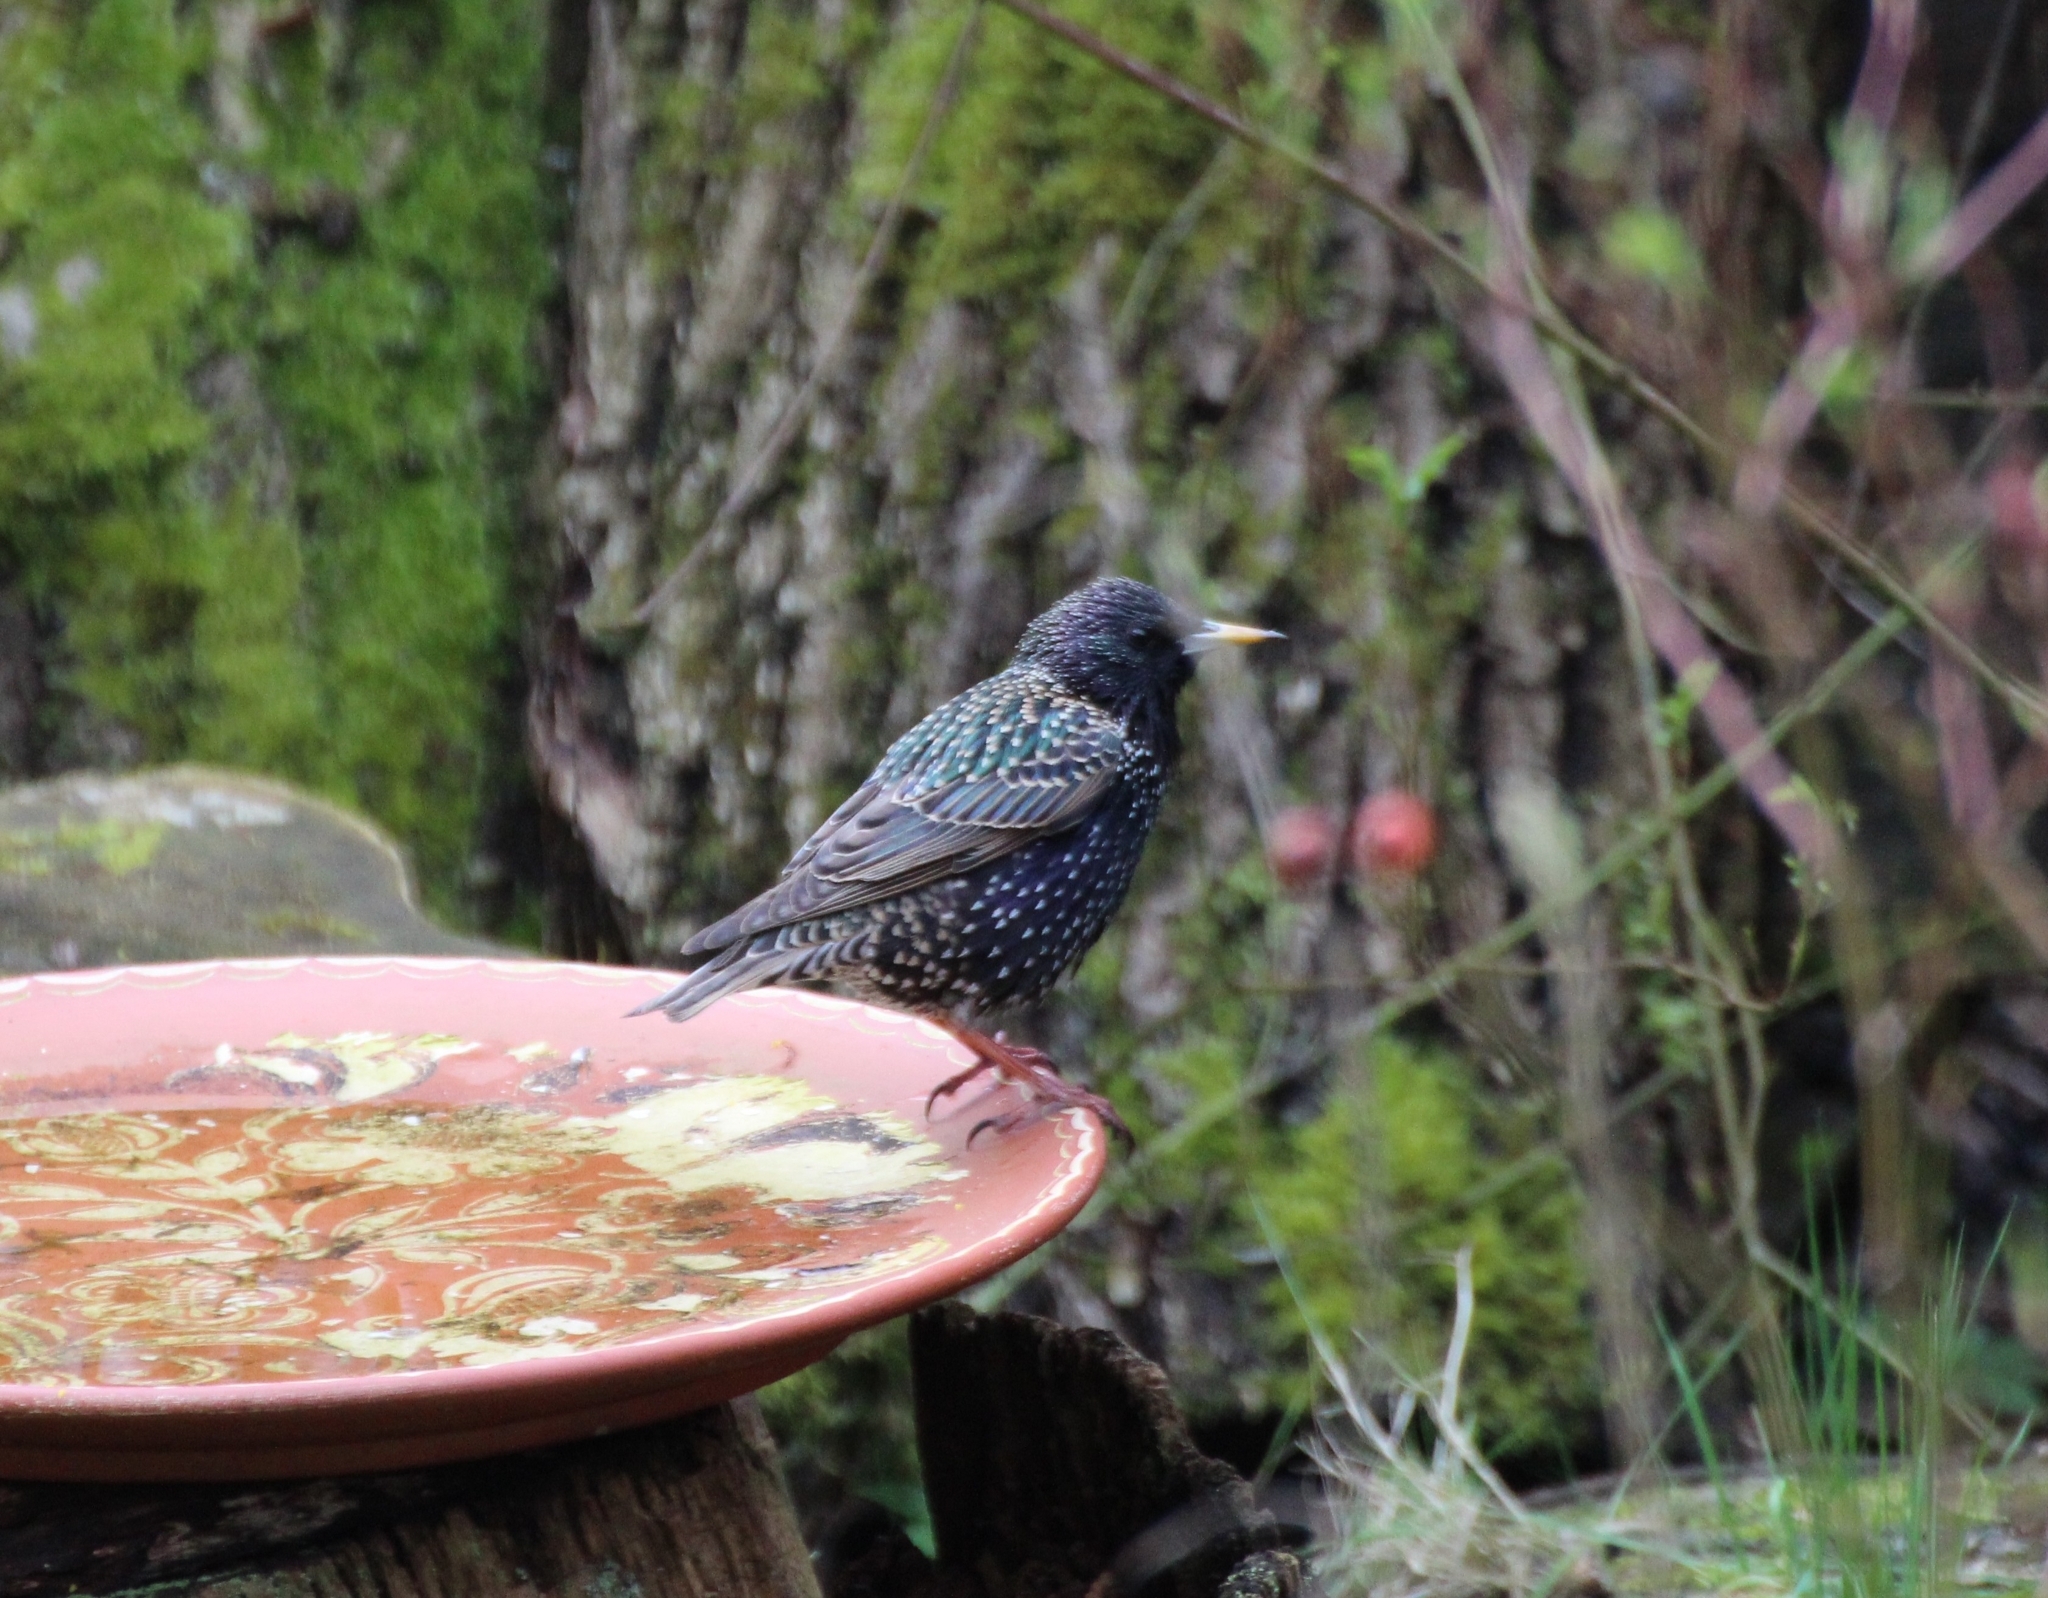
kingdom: Animalia
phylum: Chordata
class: Aves
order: Passeriformes
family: Sturnidae
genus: Sturnus
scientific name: Sturnus vulgaris
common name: Common starling
